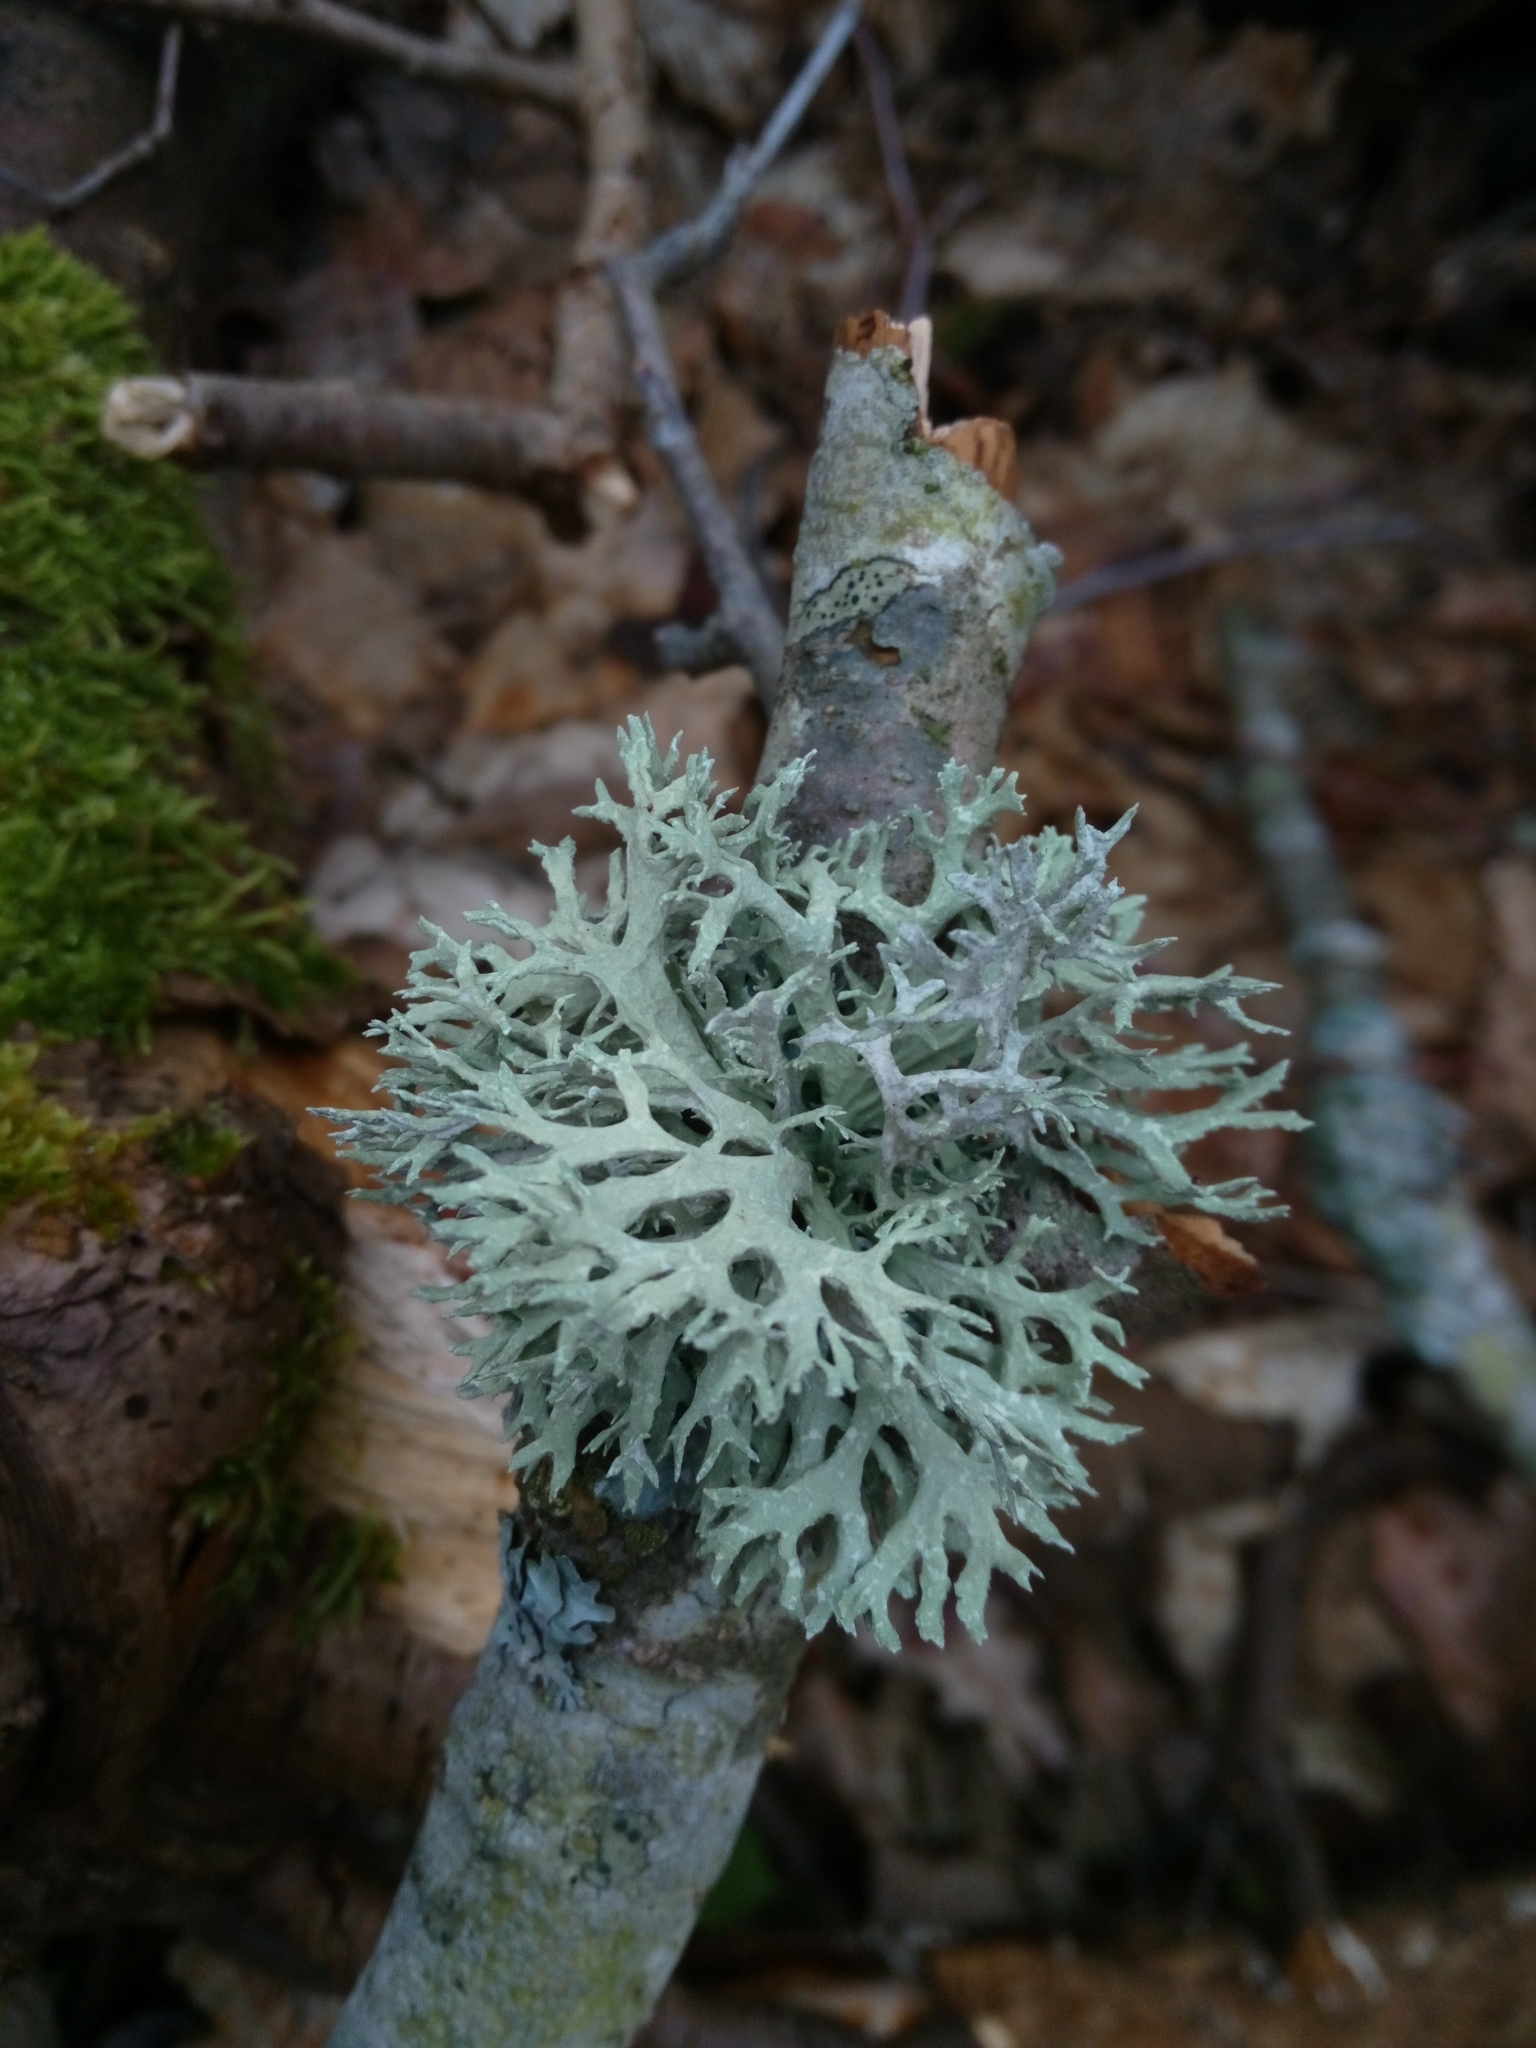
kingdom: Fungi
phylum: Ascomycota
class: Lecanoromycetes
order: Lecanorales
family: Parmeliaceae
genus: Evernia
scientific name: Evernia prunastri
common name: Oak moss
